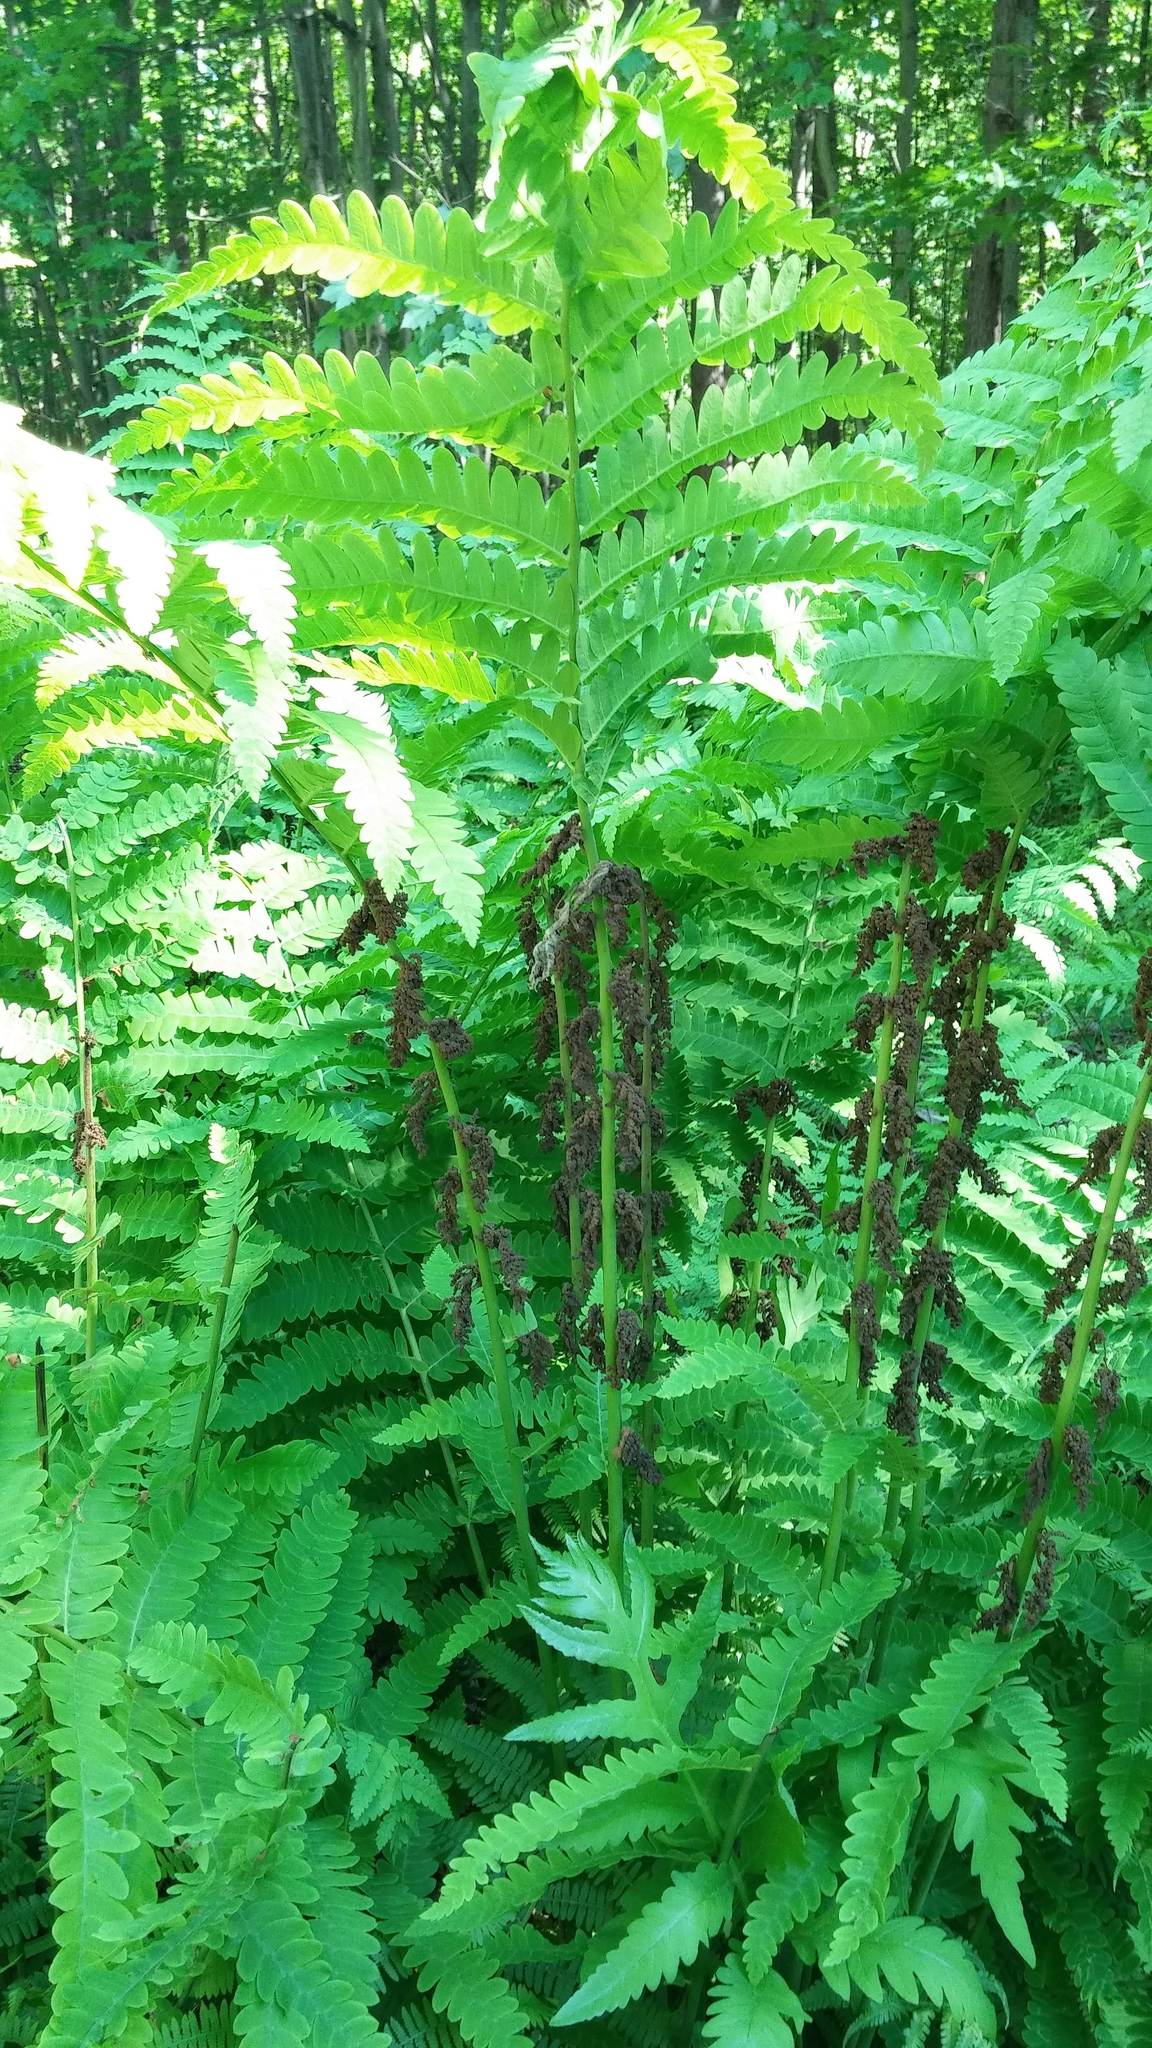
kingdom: Plantae
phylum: Tracheophyta
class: Polypodiopsida
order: Osmundales
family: Osmundaceae
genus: Claytosmunda
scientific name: Claytosmunda claytoniana
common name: Clayton's fern
